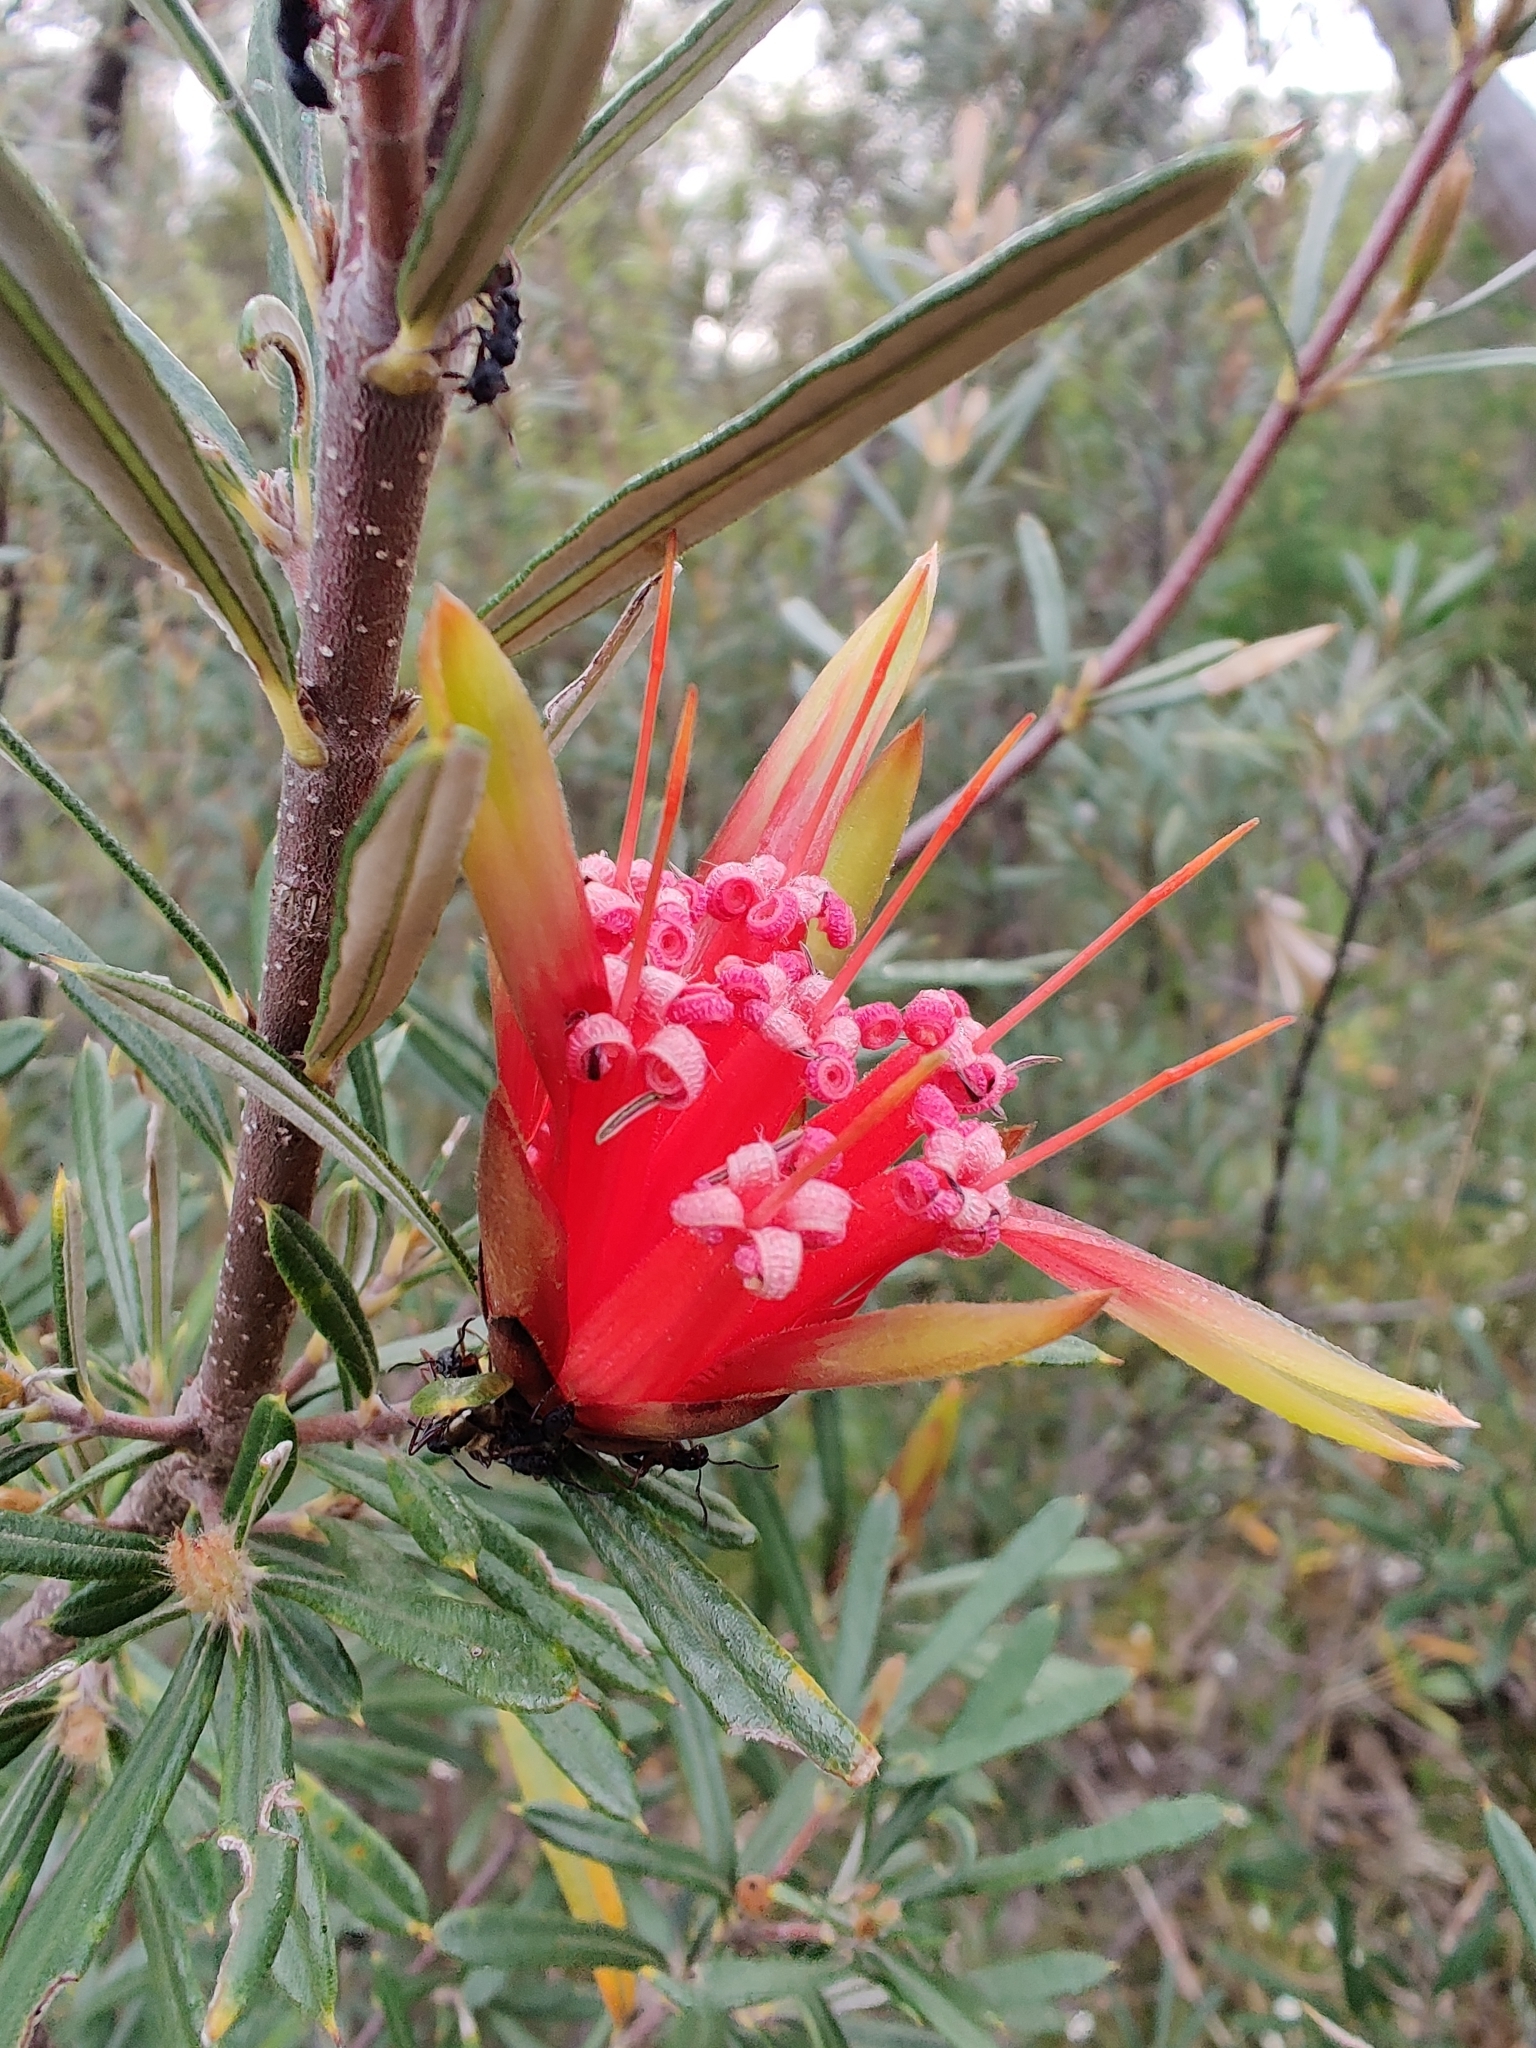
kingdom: Plantae
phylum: Tracheophyta
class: Magnoliopsida
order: Proteales
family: Proteaceae
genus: Lambertia
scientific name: Lambertia formosa
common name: Mountain-devil
